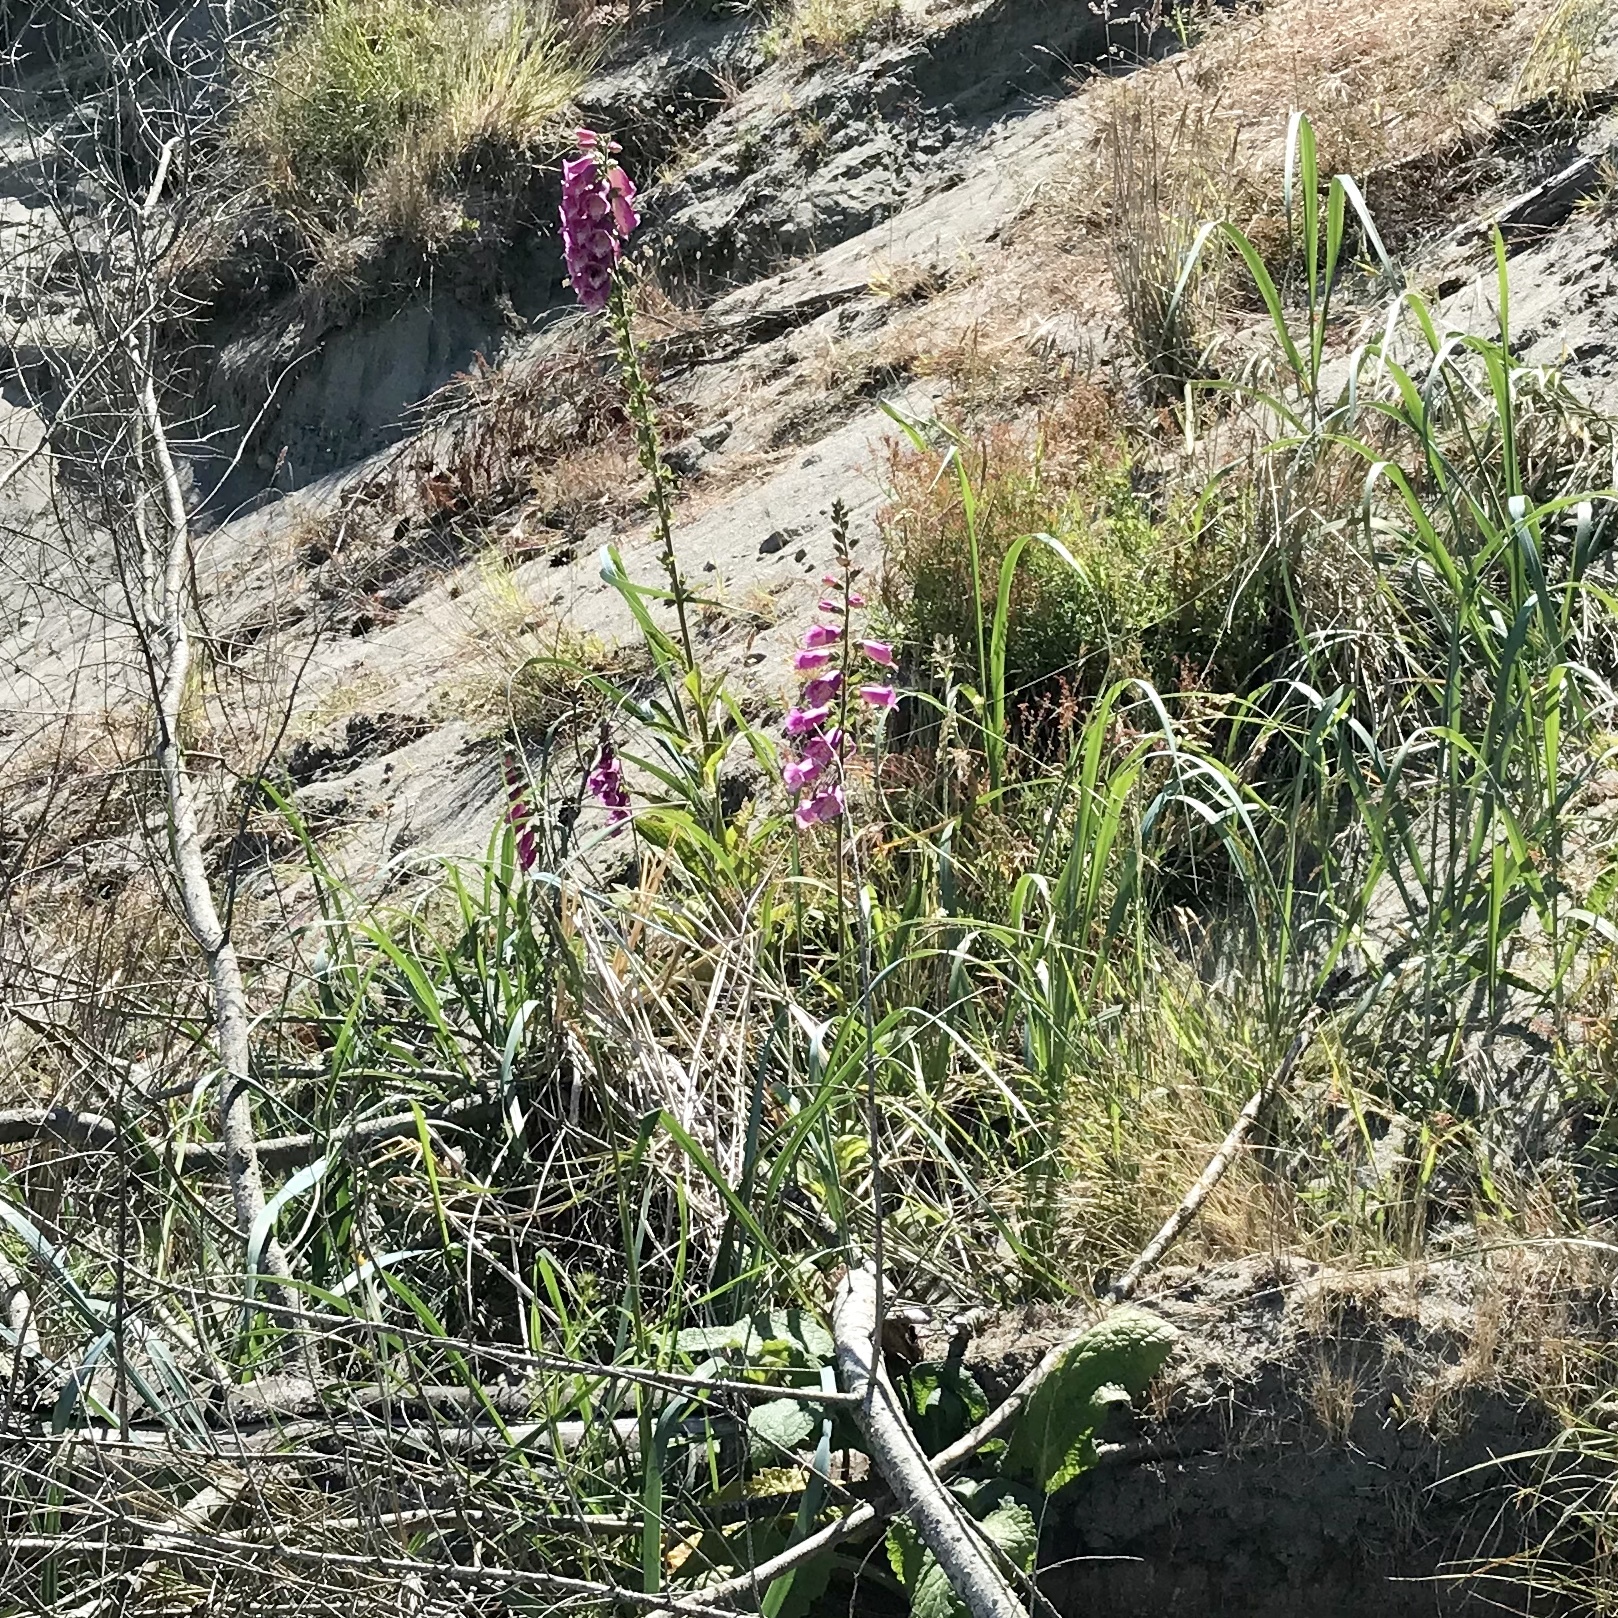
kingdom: Plantae
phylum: Tracheophyta
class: Magnoliopsida
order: Lamiales
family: Plantaginaceae
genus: Digitalis
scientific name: Digitalis purpurea
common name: Foxglove
